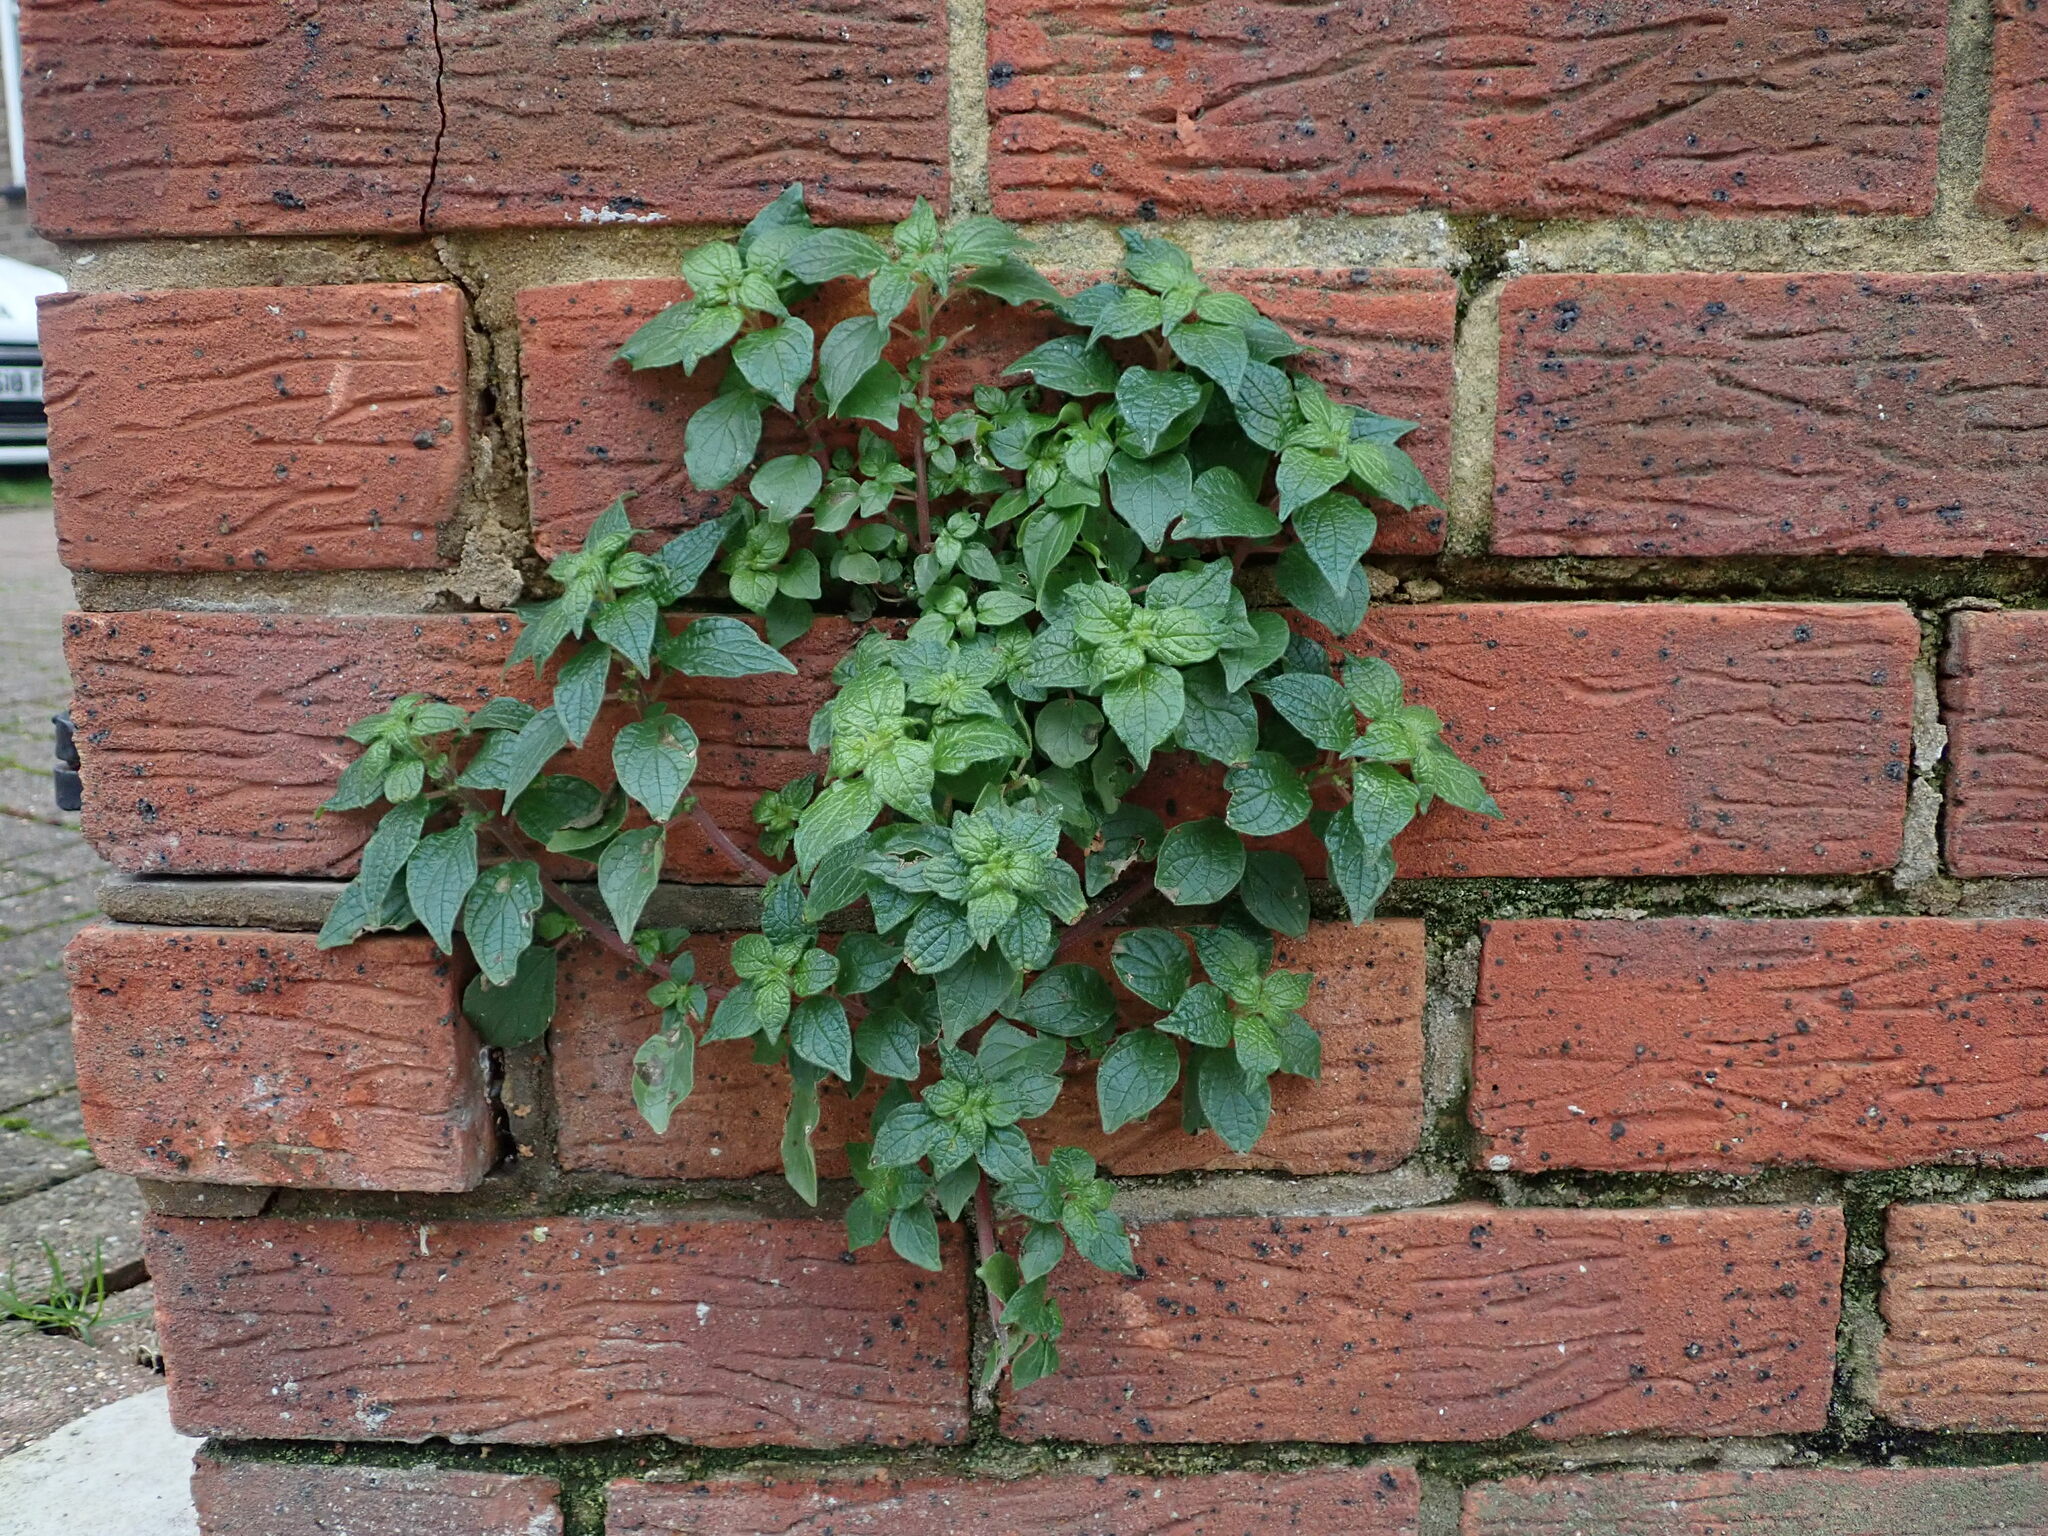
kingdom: Plantae
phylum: Tracheophyta
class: Magnoliopsida
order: Rosales
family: Urticaceae
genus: Parietaria
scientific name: Parietaria judaica
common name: Pellitory-of-the-wall
